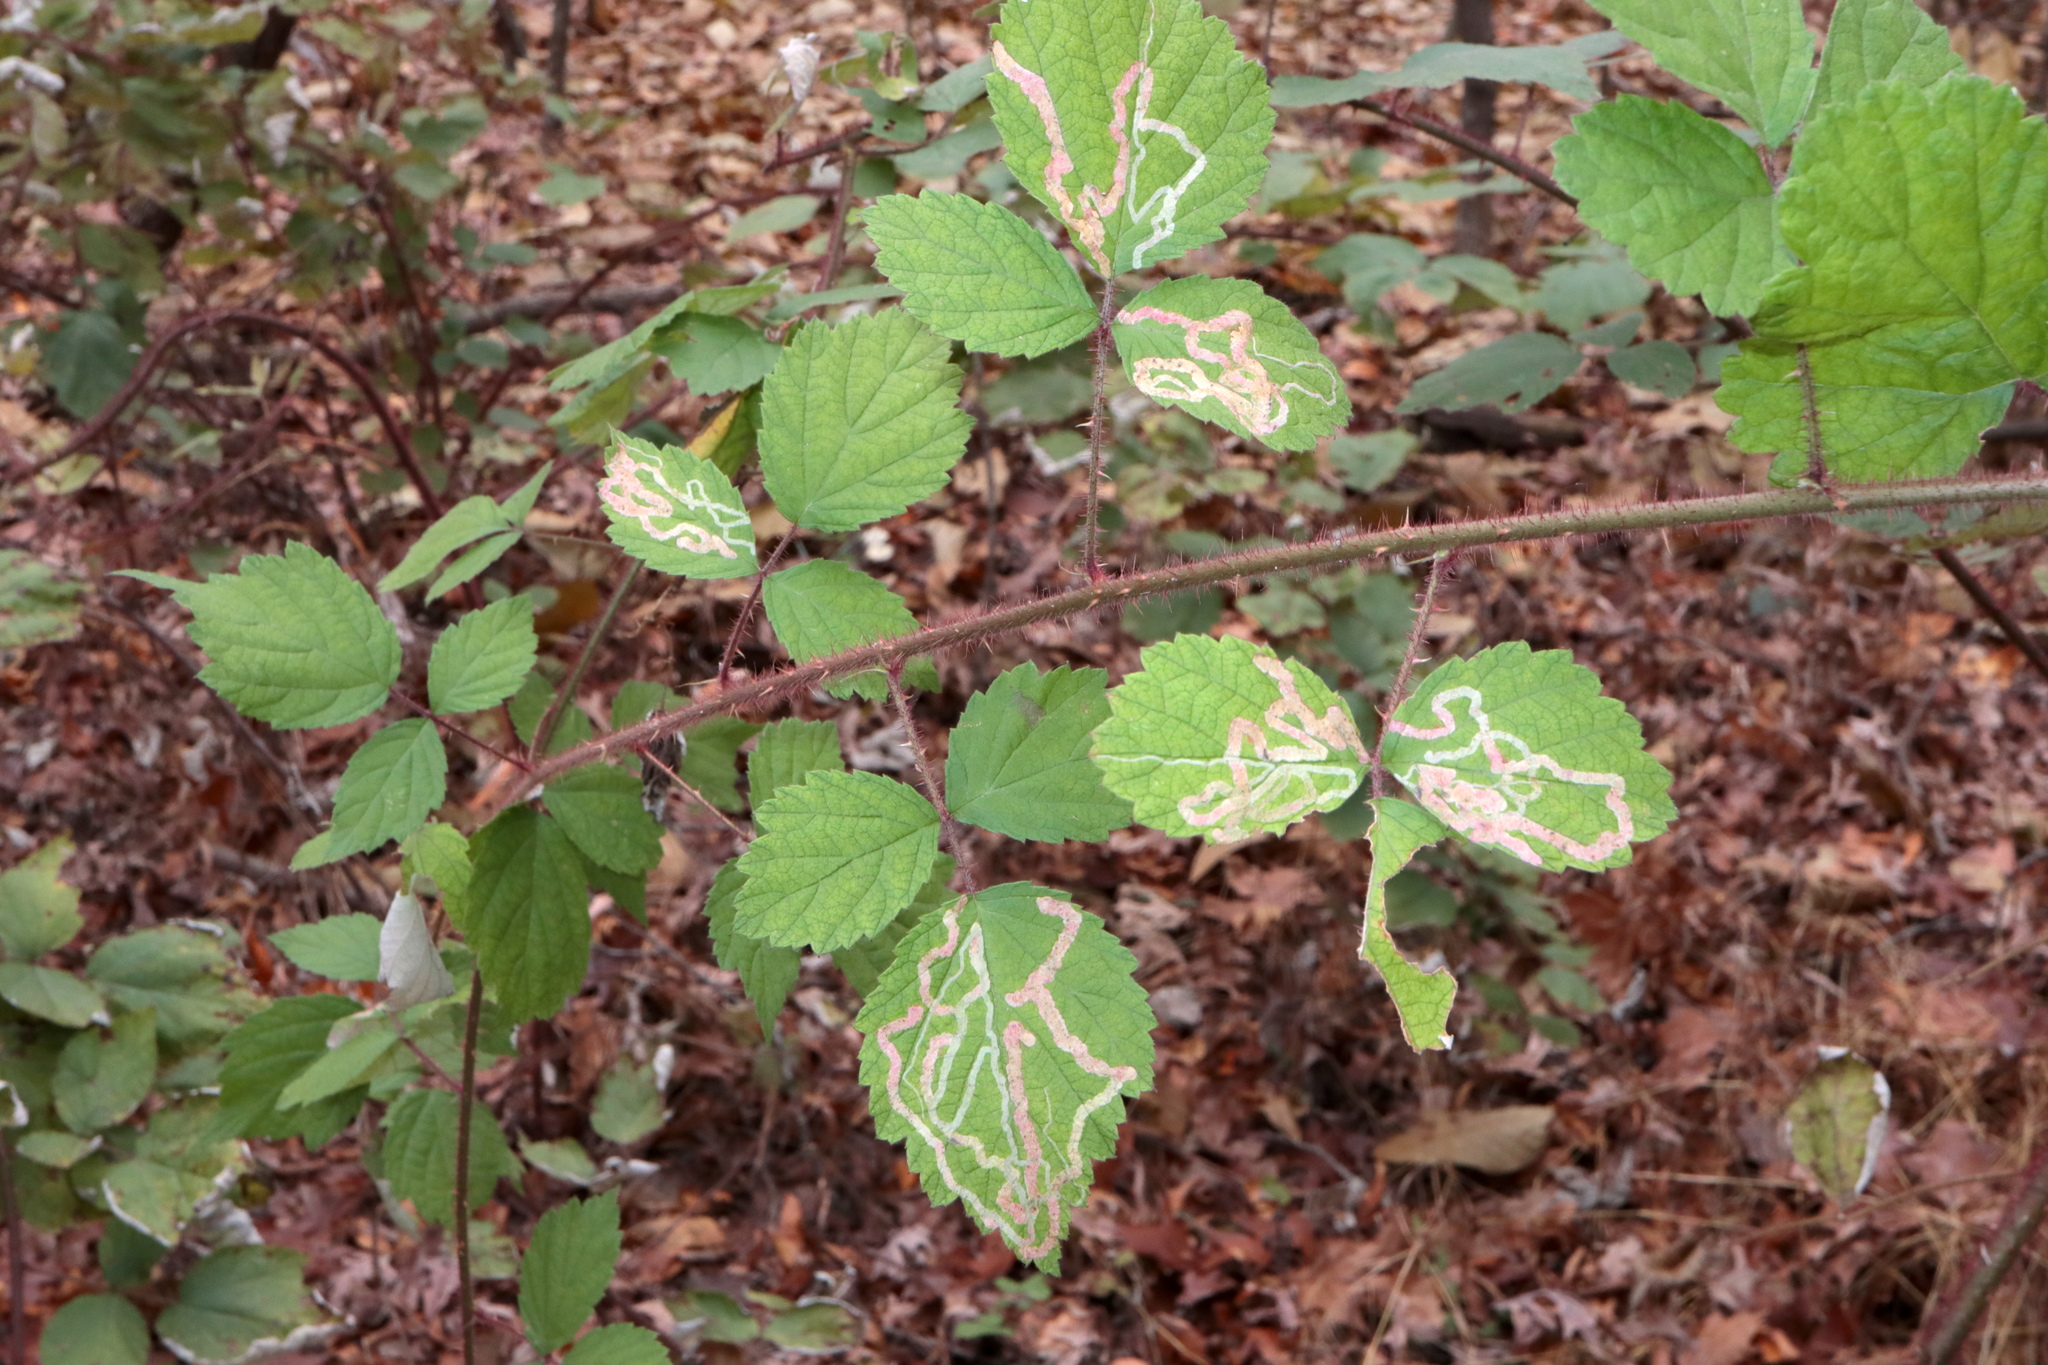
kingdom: Animalia
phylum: Arthropoda
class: Insecta
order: Diptera
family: Agromyzidae
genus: Agromyza
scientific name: Agromyza vockerothi
